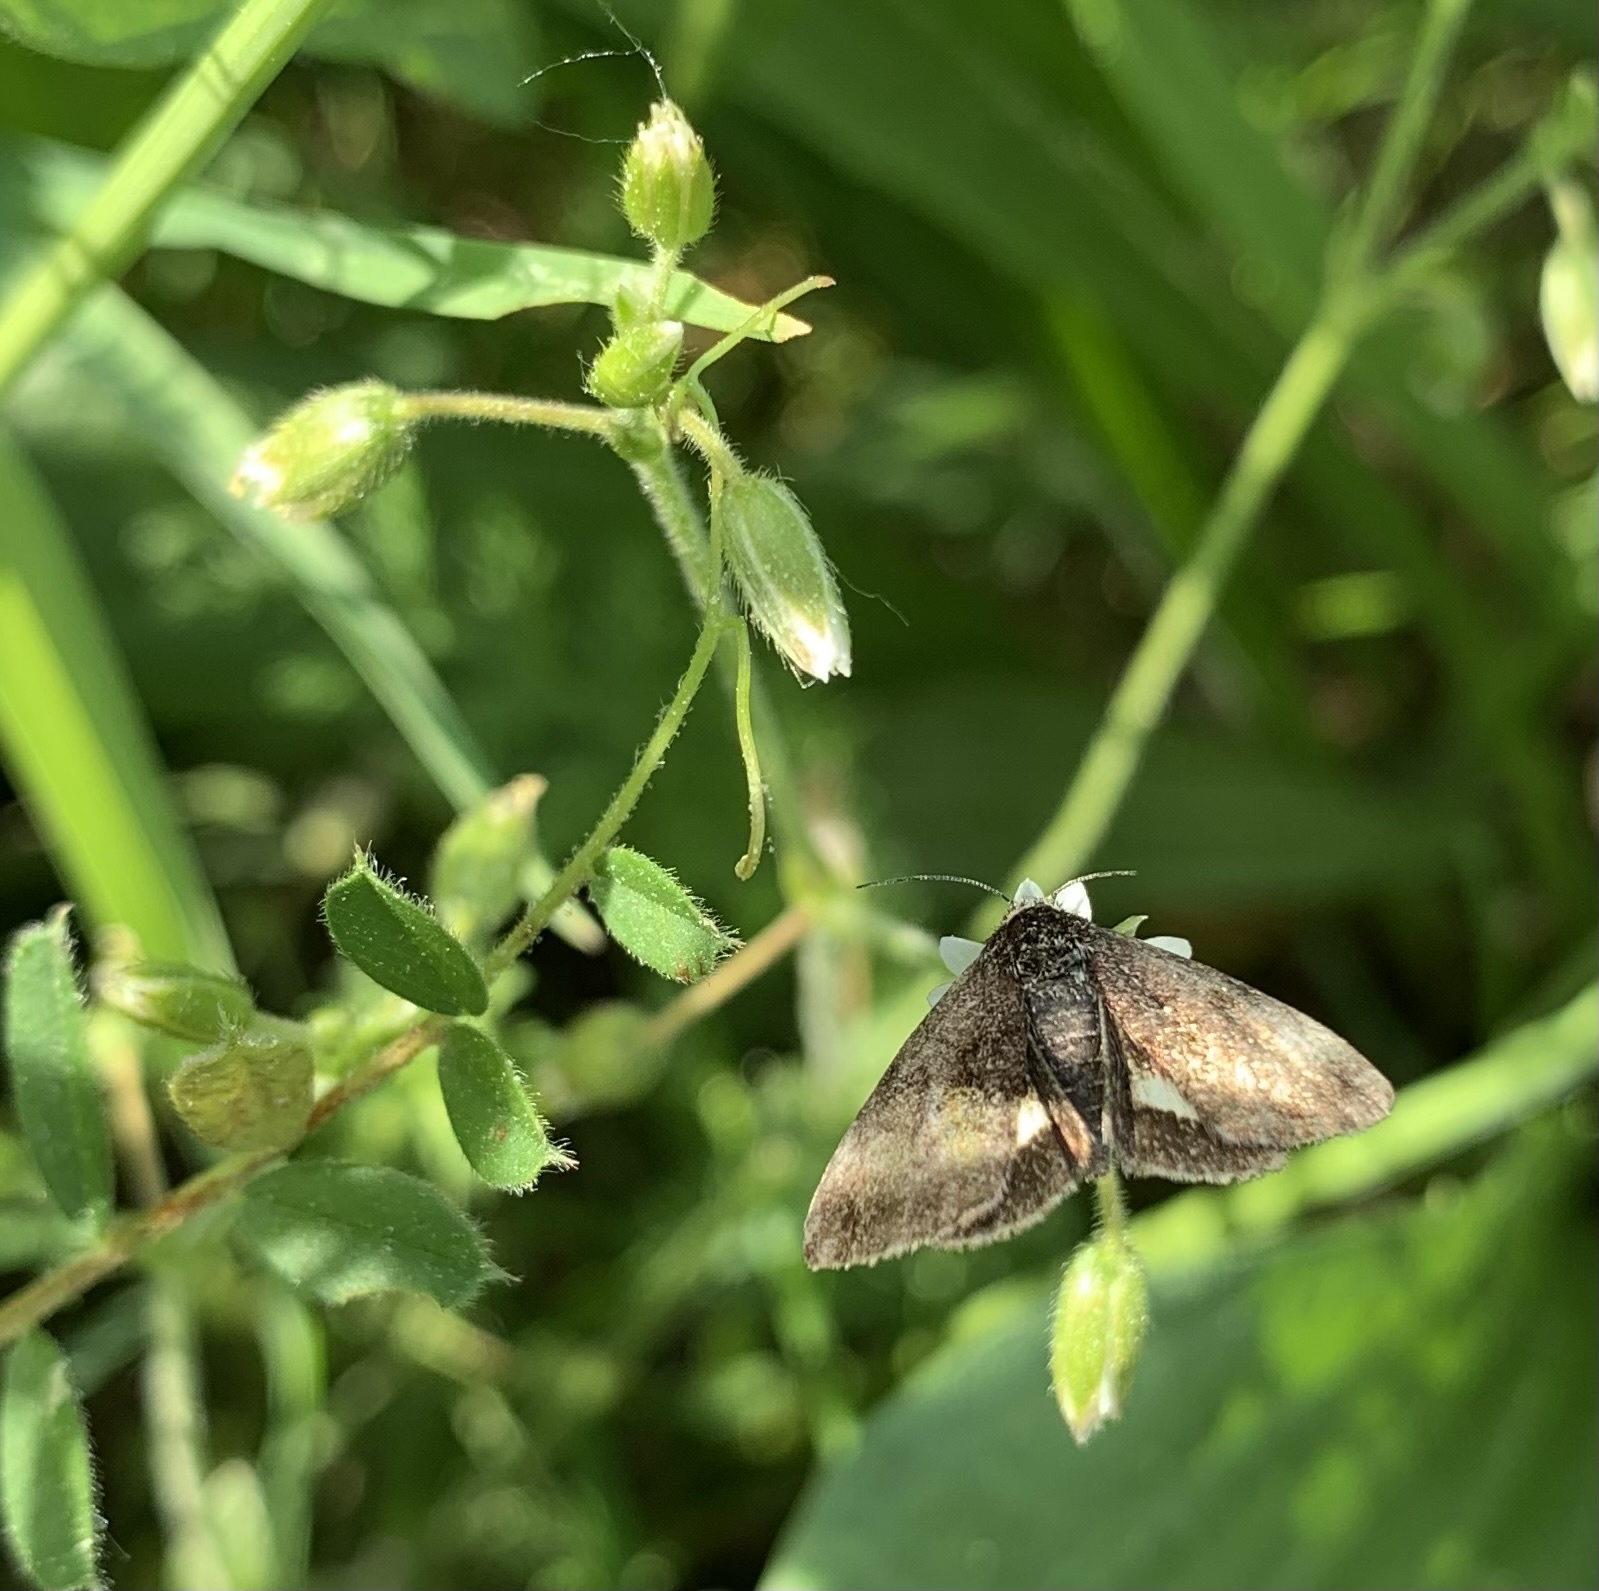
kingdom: Animalia
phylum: Arthropoda
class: Insecta
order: Lepidoptera
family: Noctuidae
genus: Panemeria
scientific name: Panemeria tenebrata
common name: Small yellow underwing
